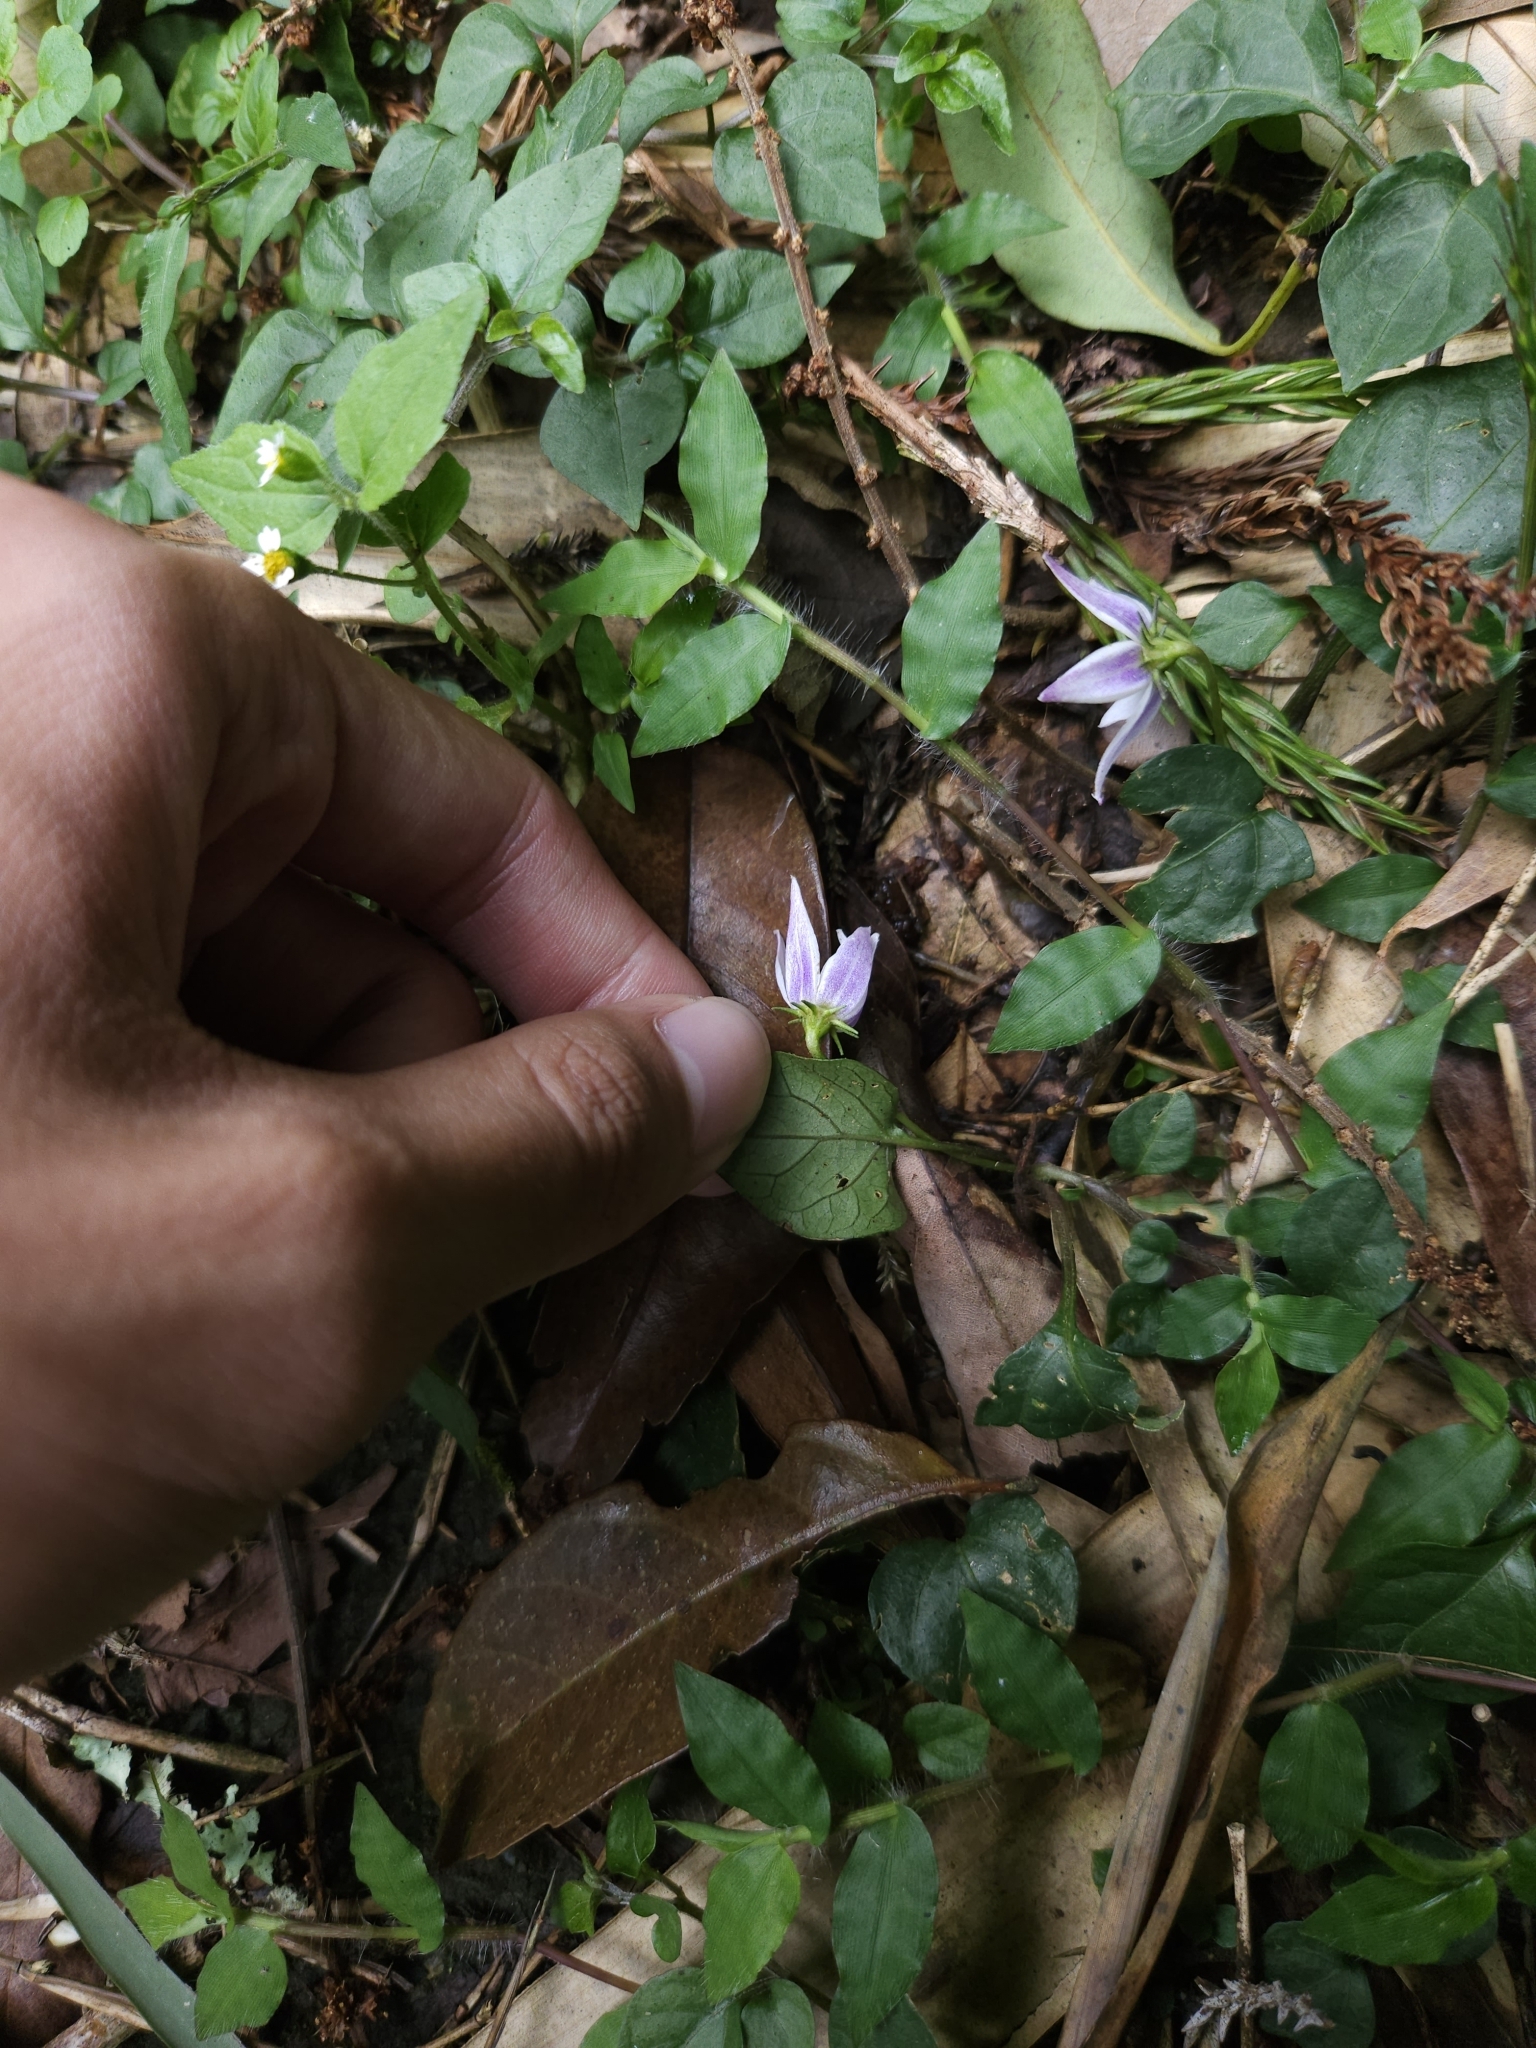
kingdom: Plantae
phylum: Tracheophyta
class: Magnoliopsida
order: Solanales
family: Solanaceae
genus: Lycianthes
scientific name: Lycianthes lysimachioides
